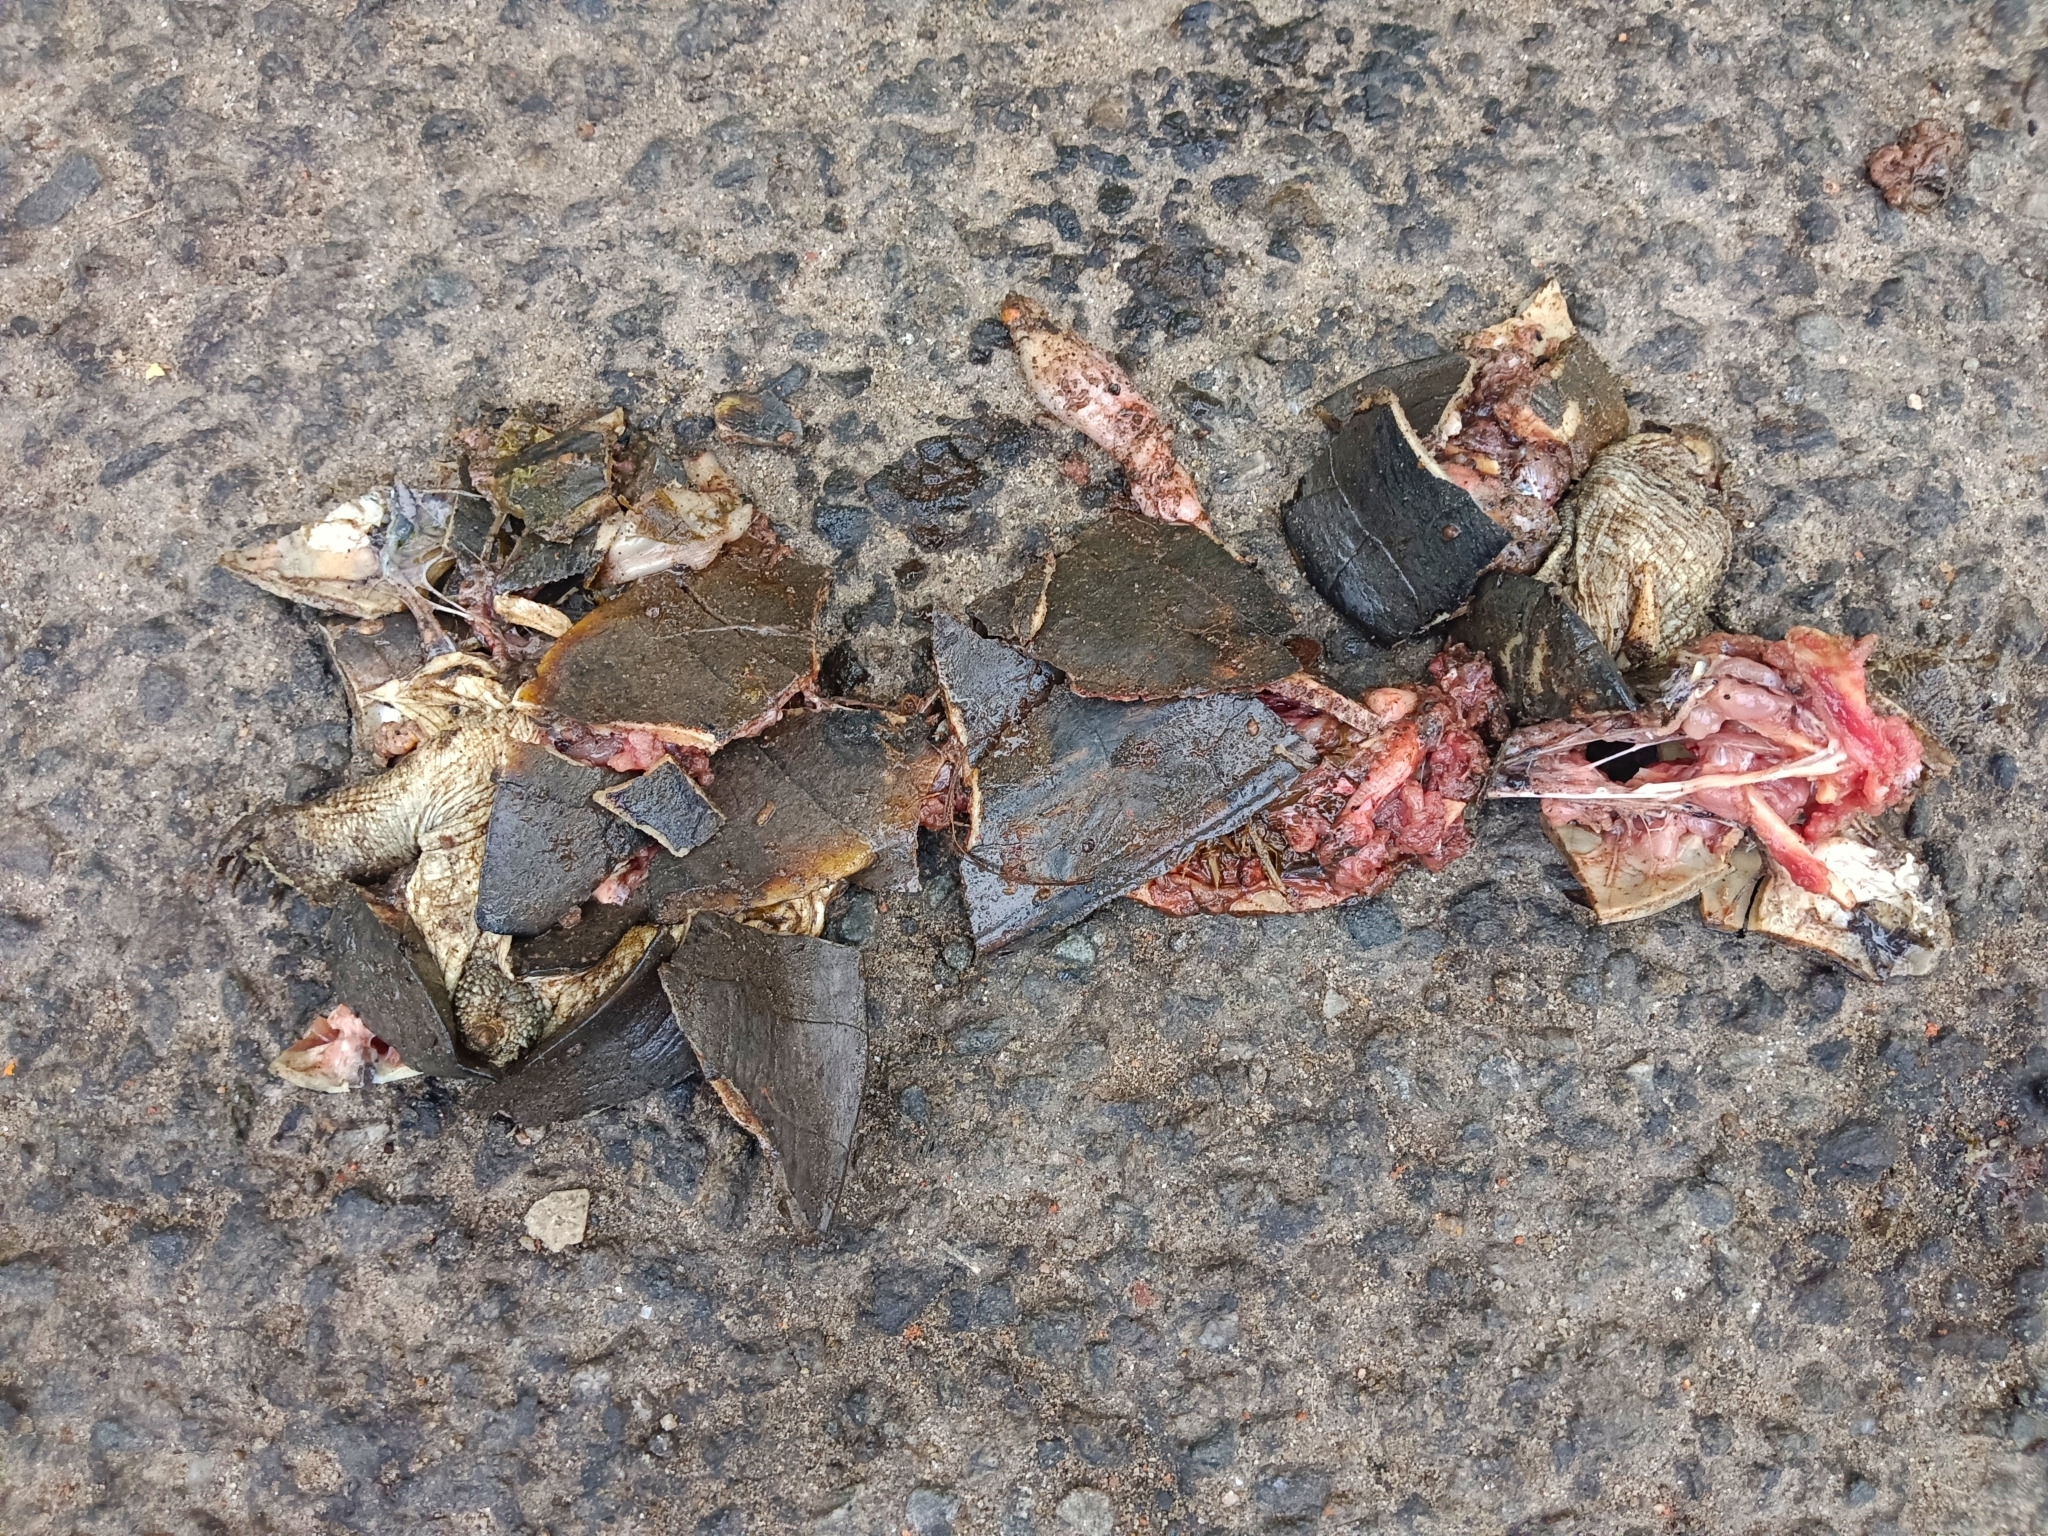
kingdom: Animalia
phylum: Chordata
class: Testudines
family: Geoemydidae
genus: Melanochelys
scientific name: Melanochelys trijuga
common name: Indian black turtle
